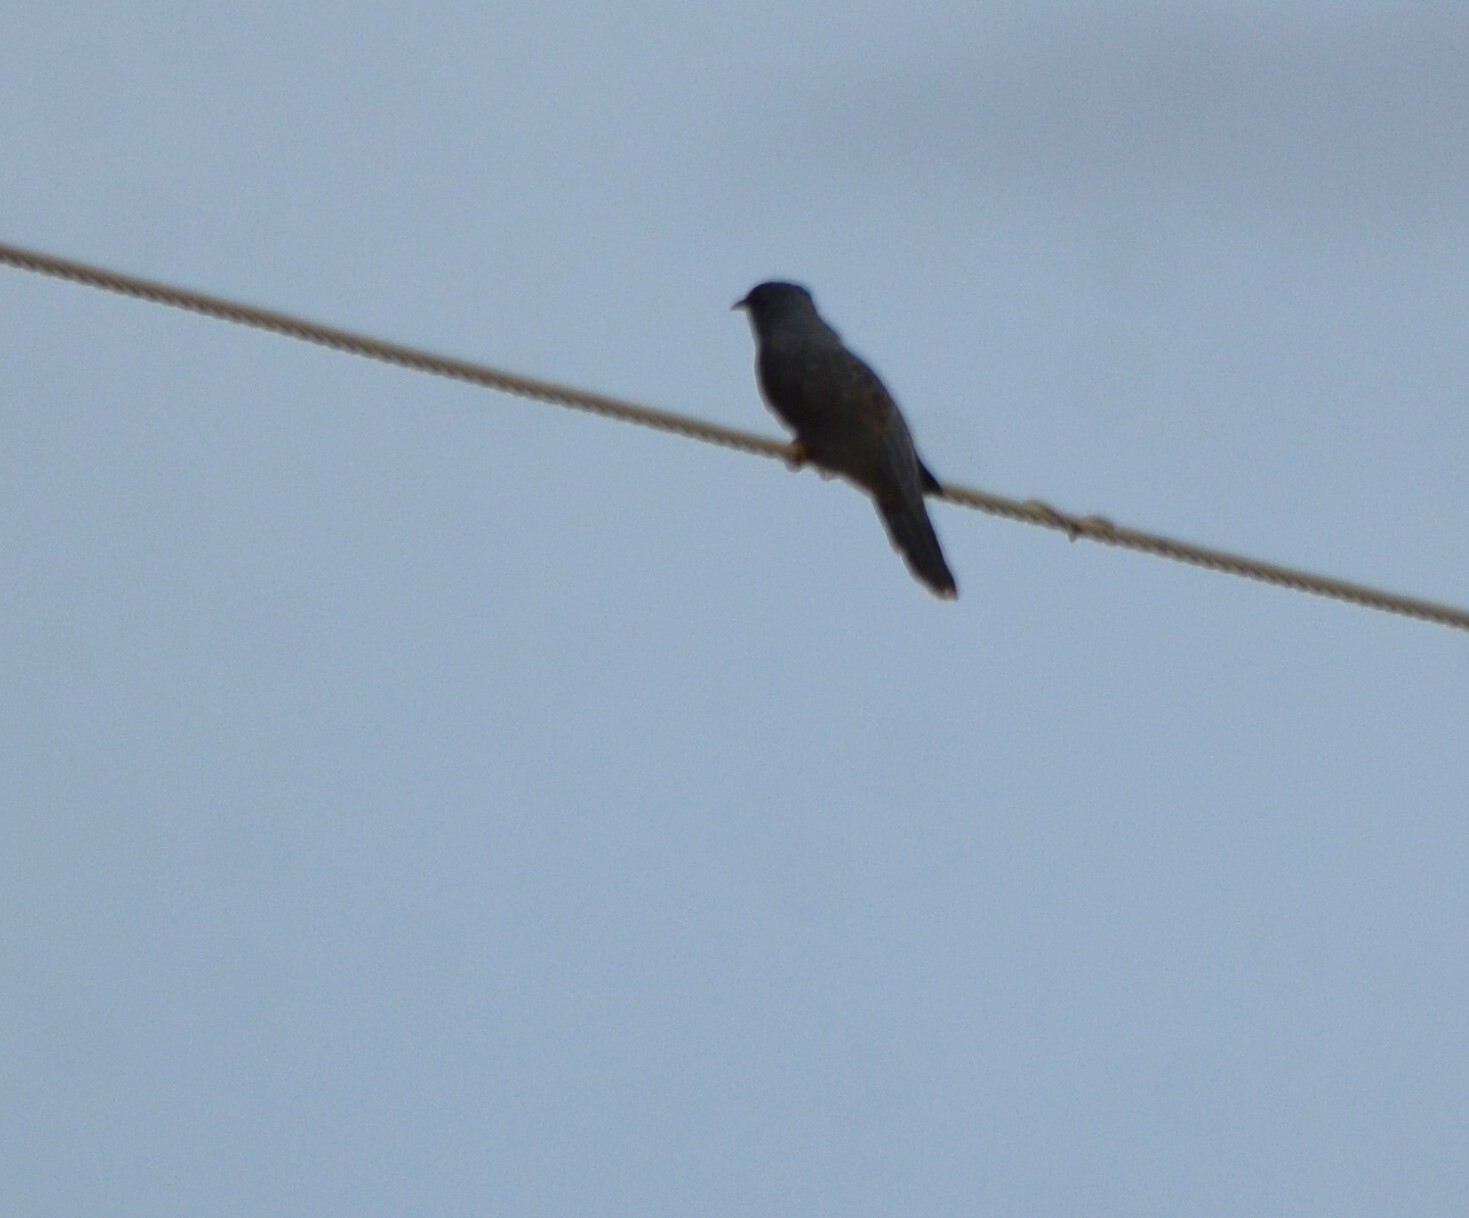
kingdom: Animalia
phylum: Chordata
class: Aves
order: Cuculiformes
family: Cuculidae
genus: Cacomantis
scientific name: Cacomantis passerinus
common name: Grey-bellied cuckoo
